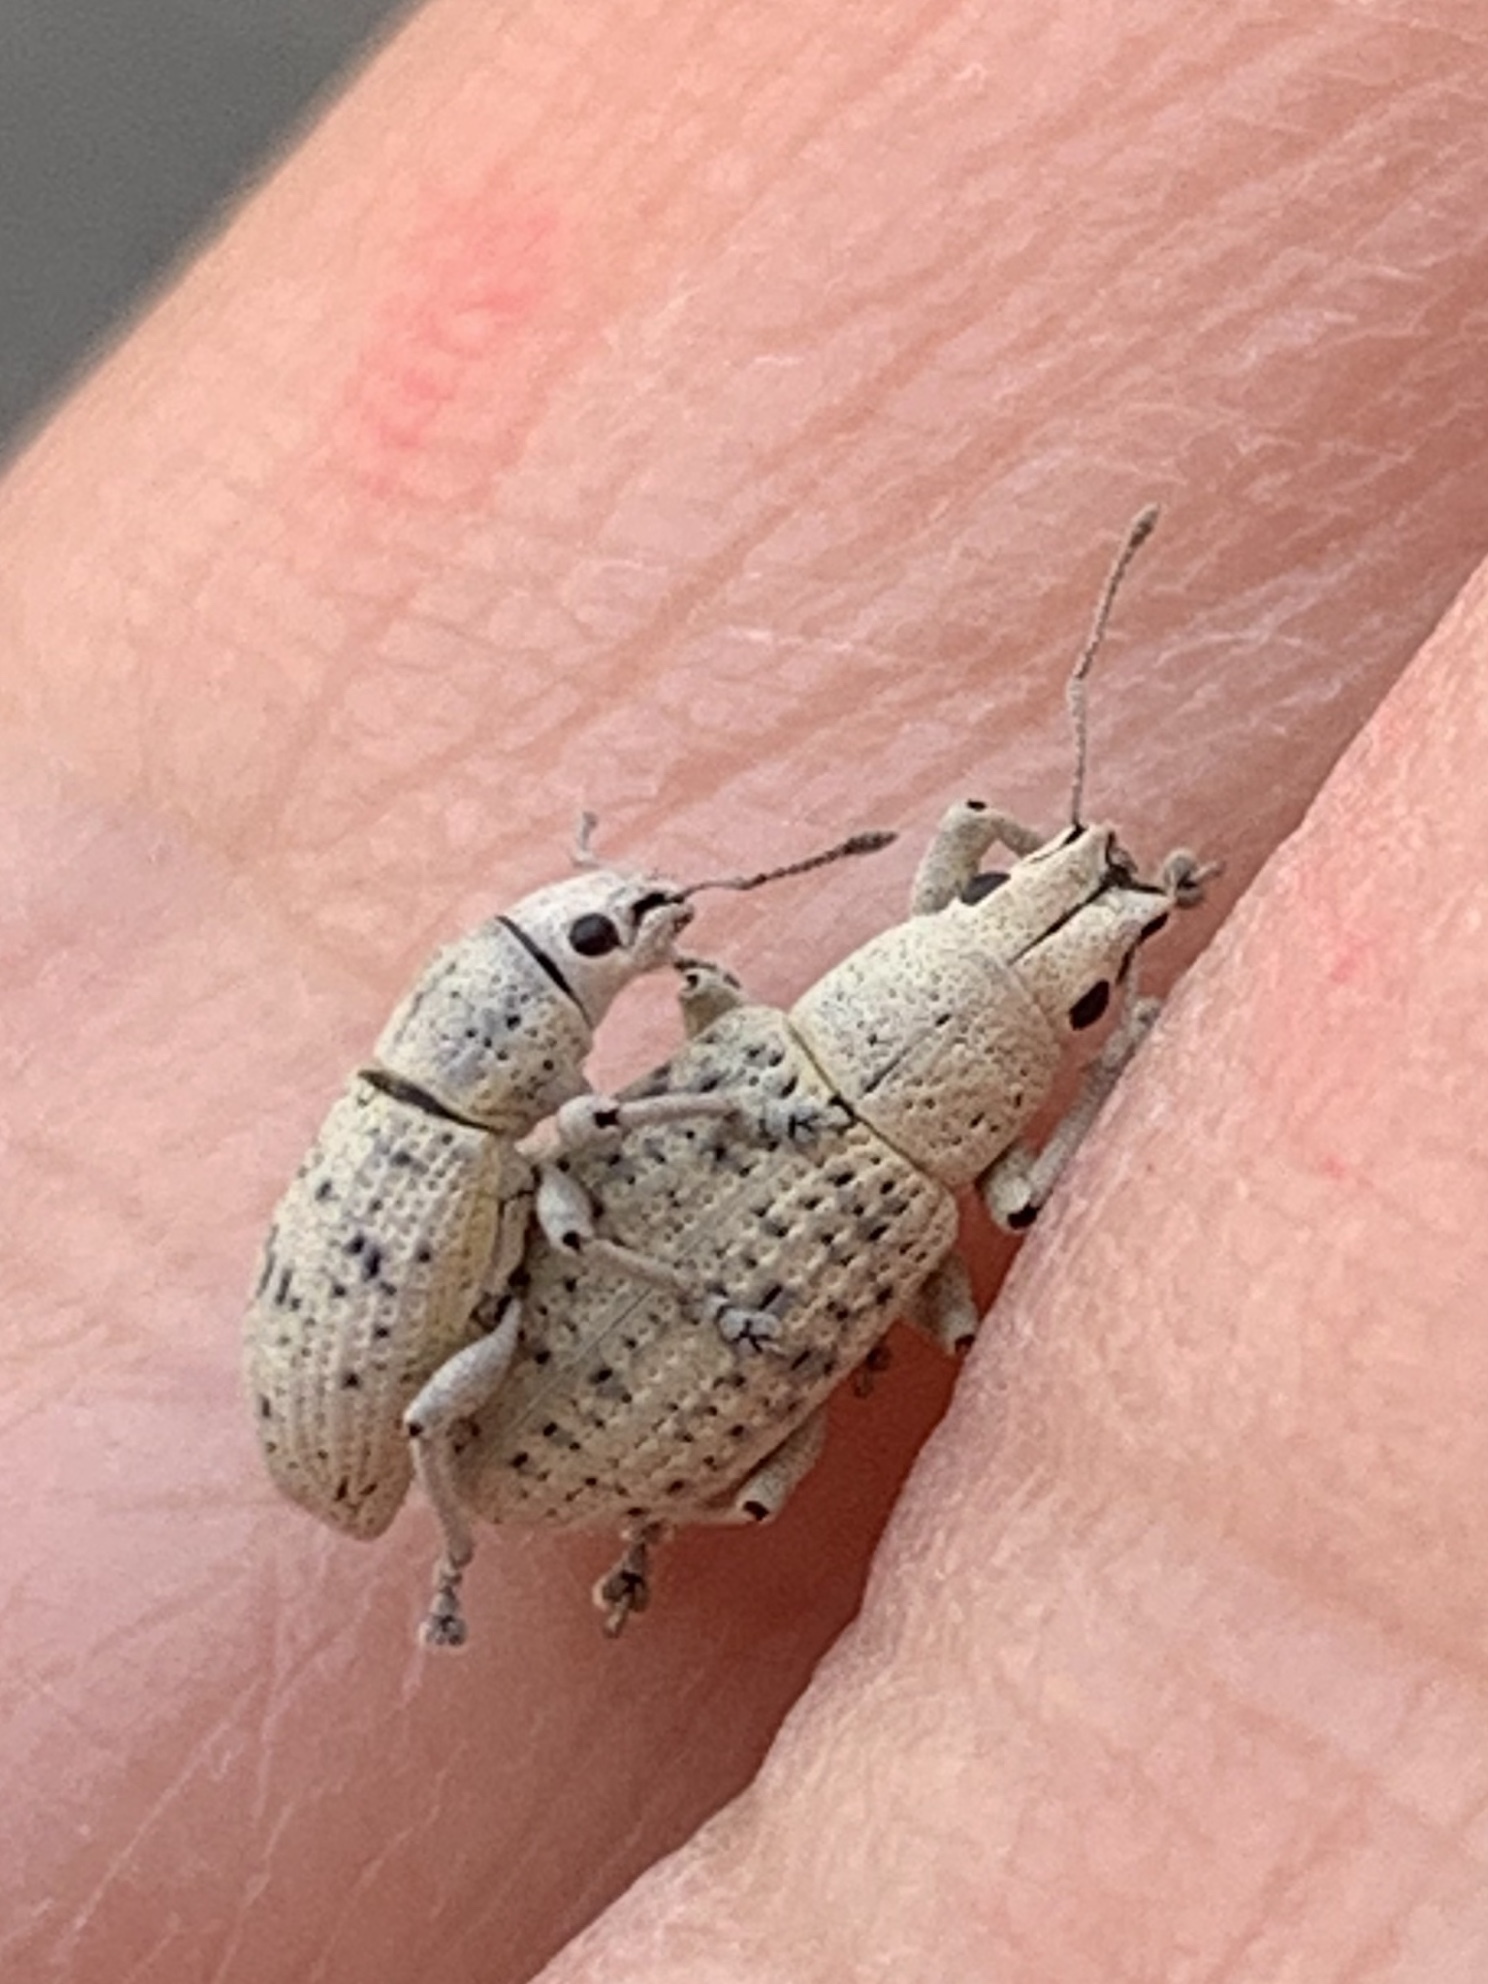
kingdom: Animalia
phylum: Arthropoda
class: Insecta
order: Coleoptera
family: Curculionidae
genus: Artipus
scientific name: Artipus floridanus
